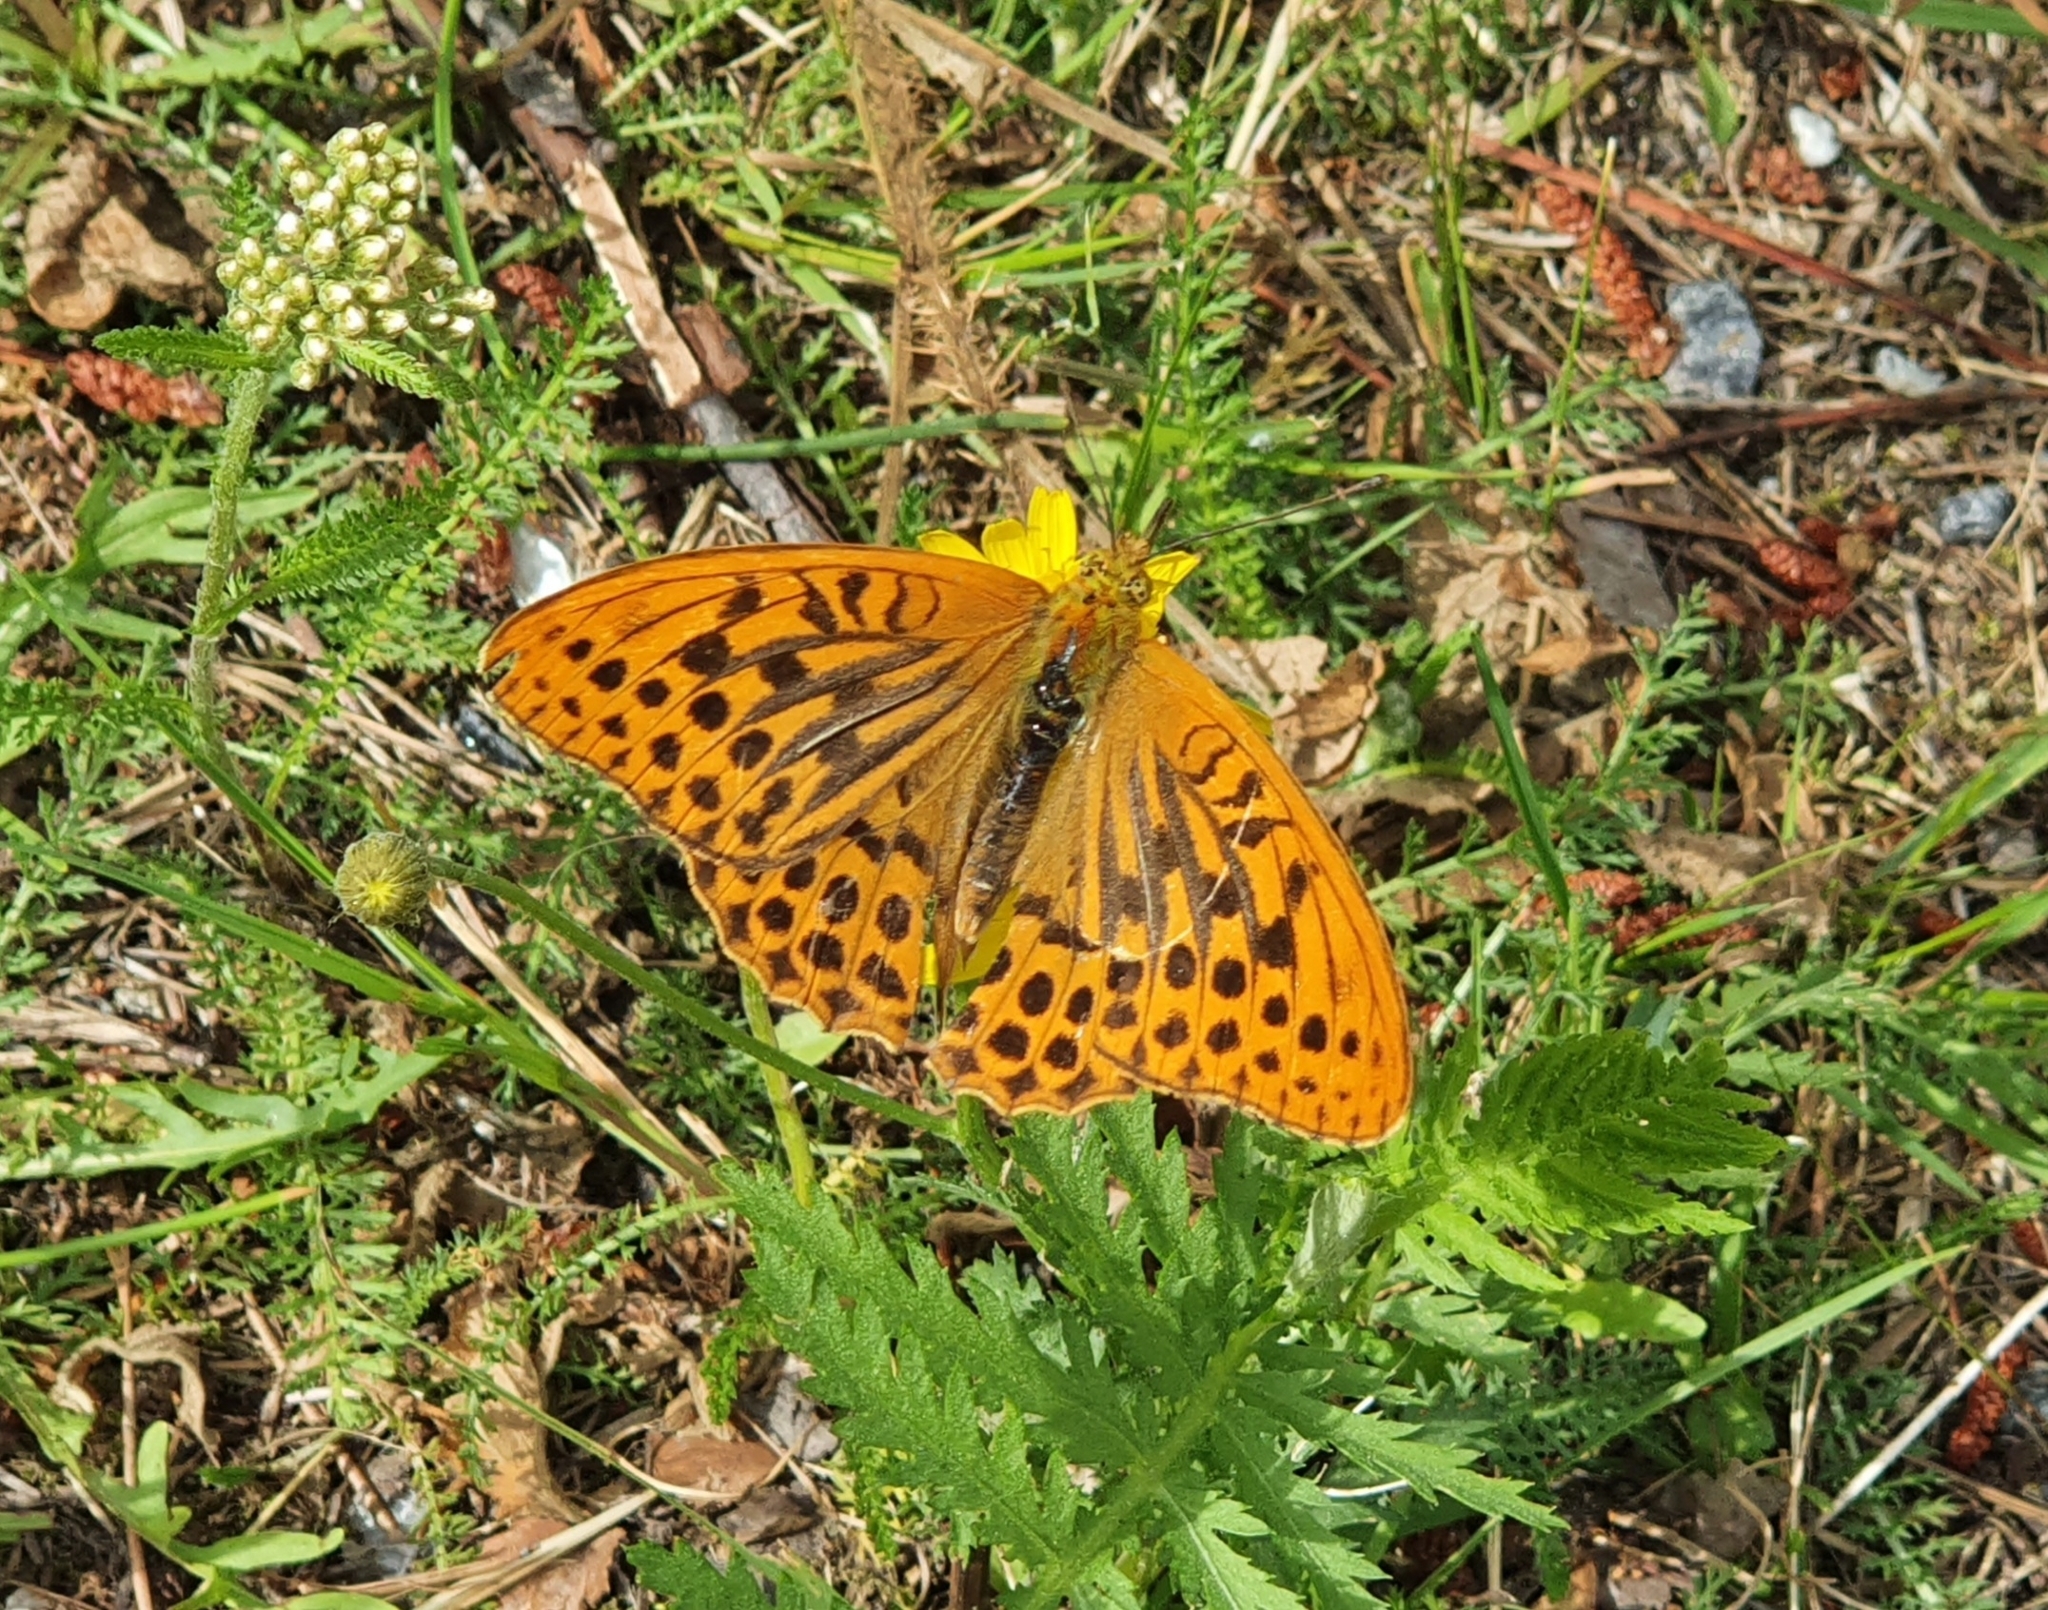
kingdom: Animalia
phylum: Arthropoda
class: Insecta
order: Lepidoptera
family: Nymphalidae
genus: Argynnis
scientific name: Argynnis paphia
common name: Silver-washed fritillary
